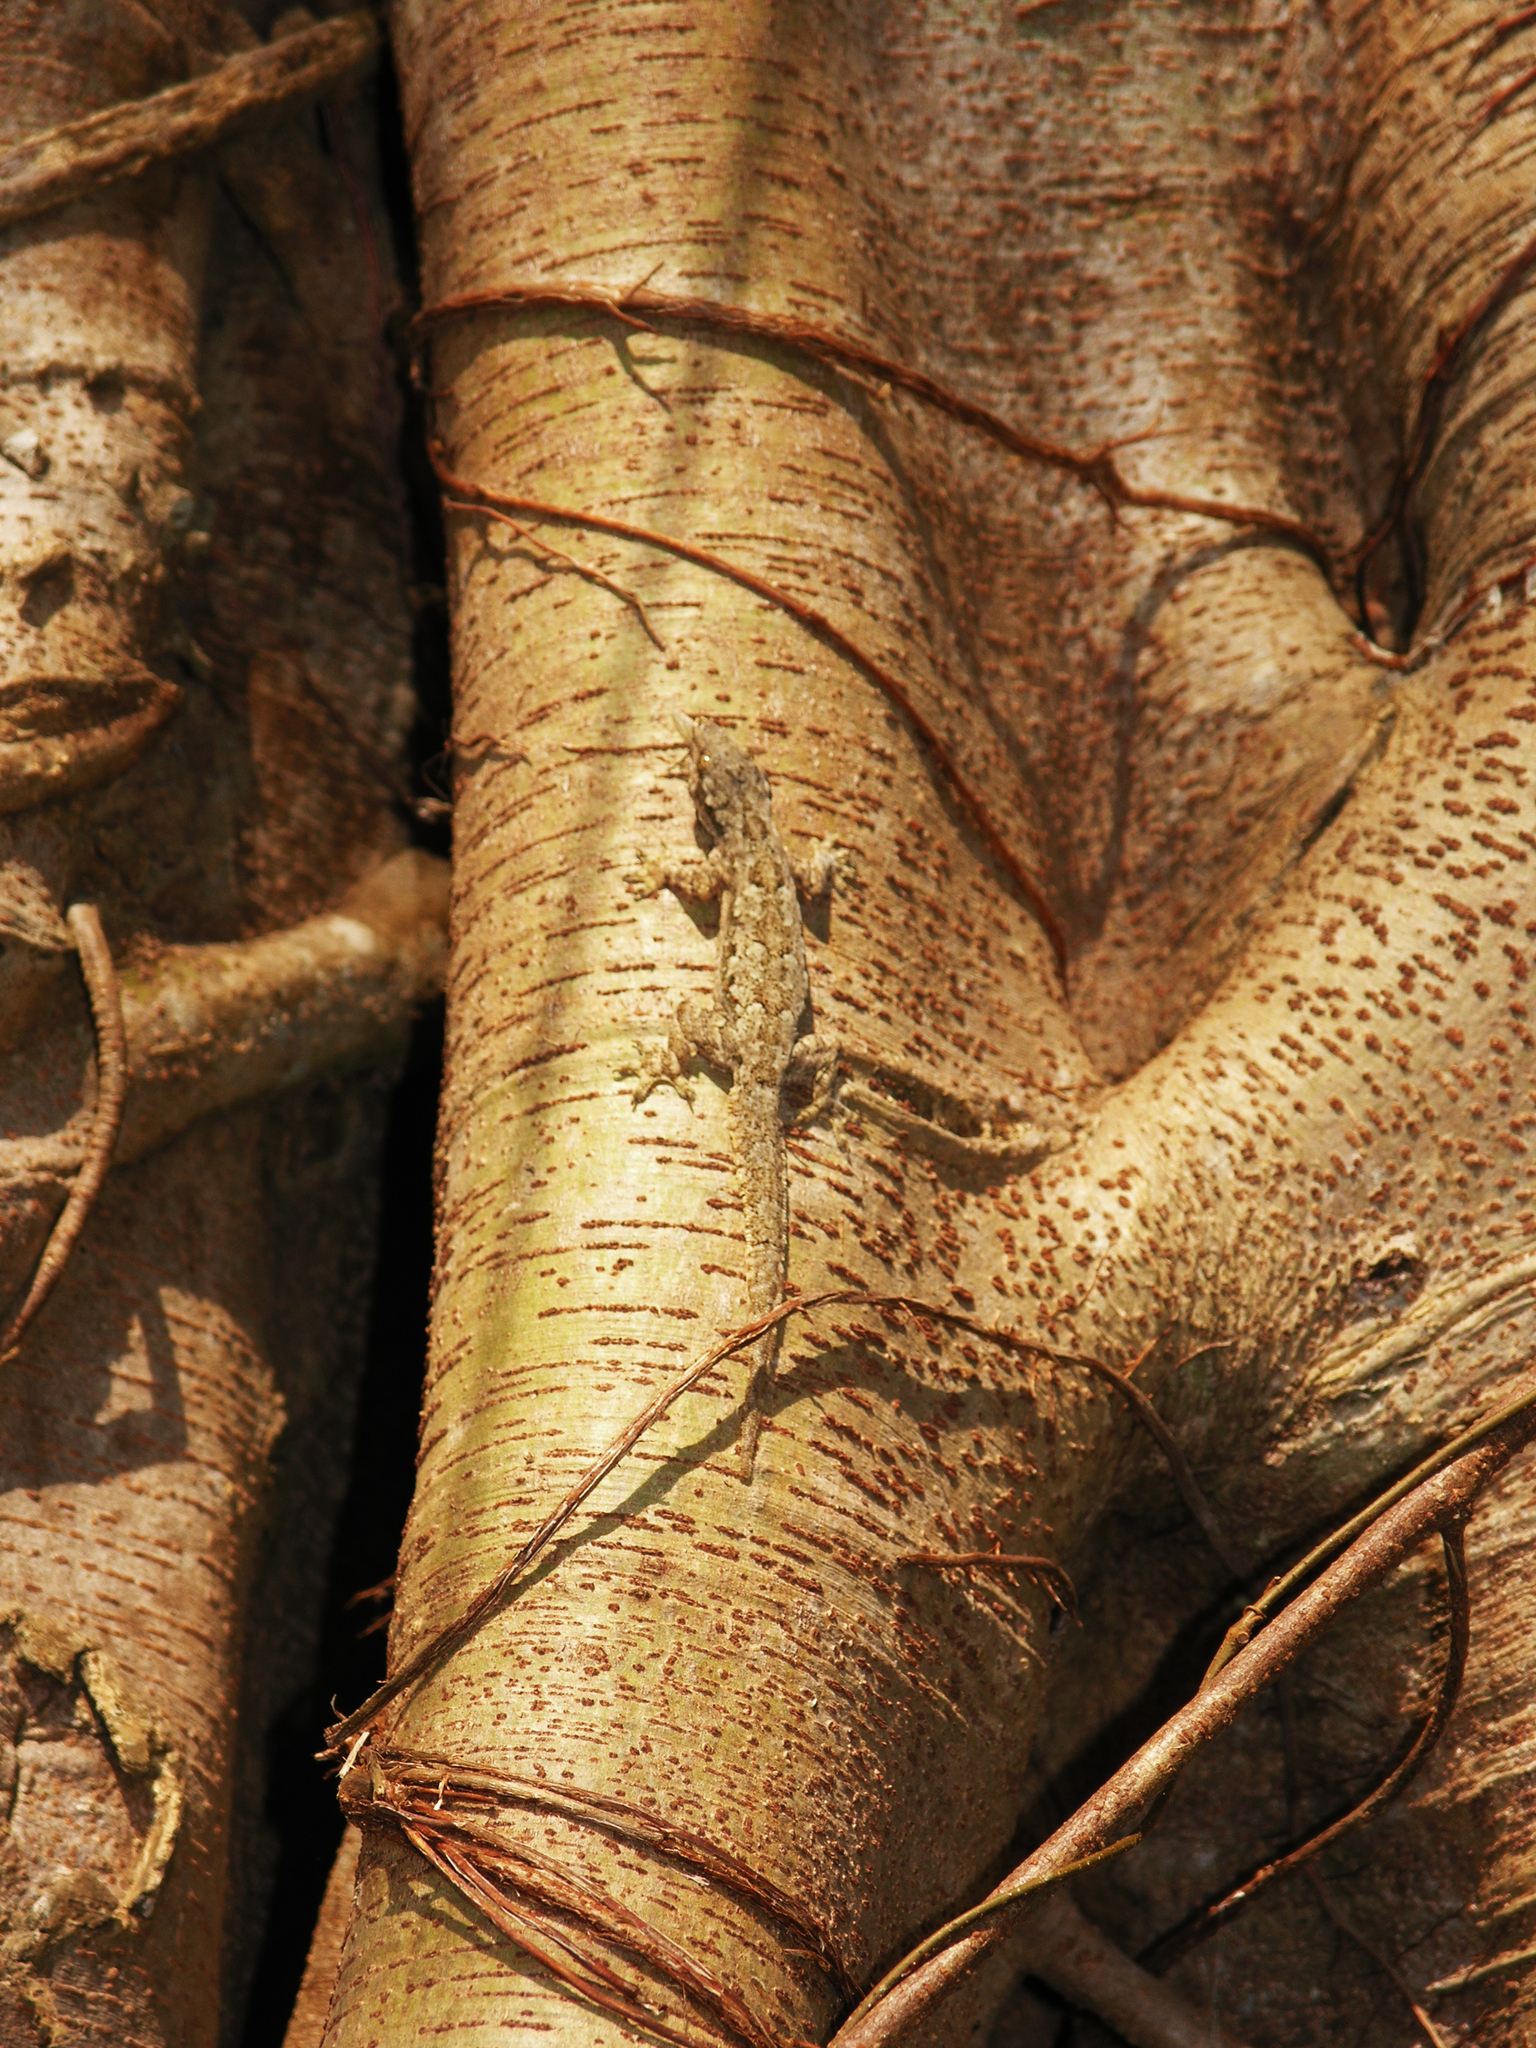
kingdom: Animalia
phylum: Chordata
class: Squamata
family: Gekkonidae
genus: Hemidactylus
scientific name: Hemidactylus platyurus
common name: Flat-tailed house gecko
